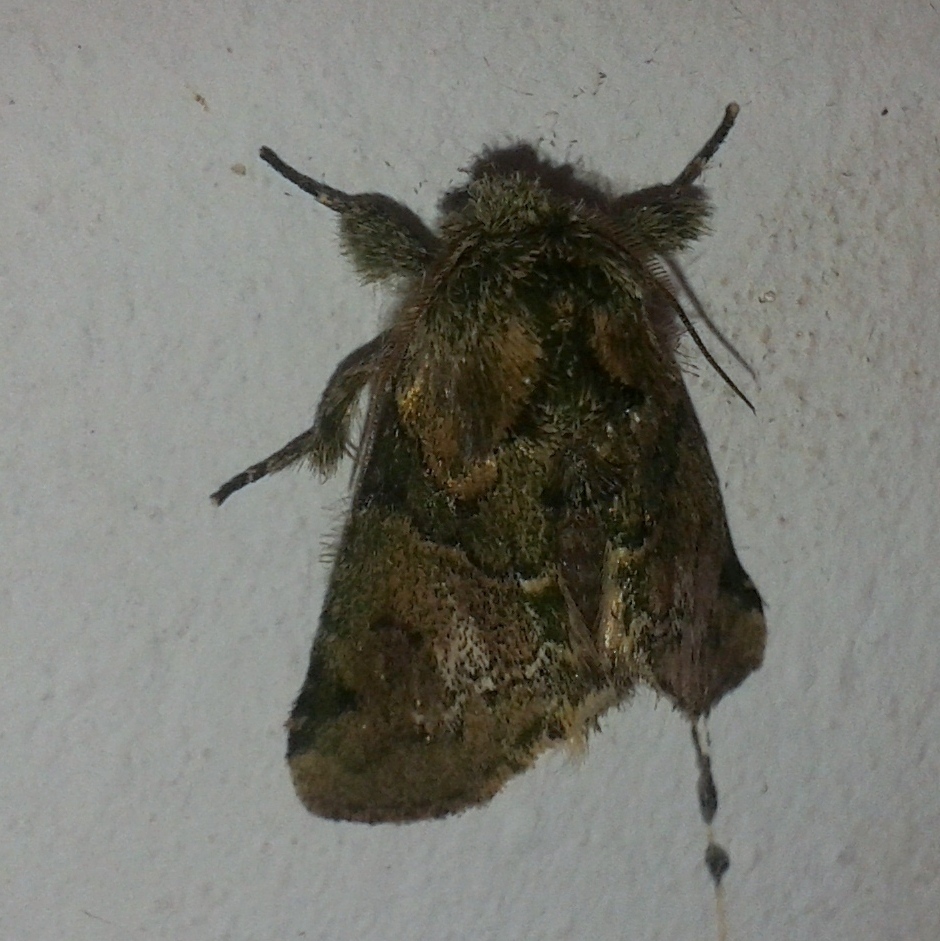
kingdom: Animalia
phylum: Arthropoda
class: Insecta
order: Lepidoptera
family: Notodontidae
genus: Disphragis
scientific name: Disphragis
